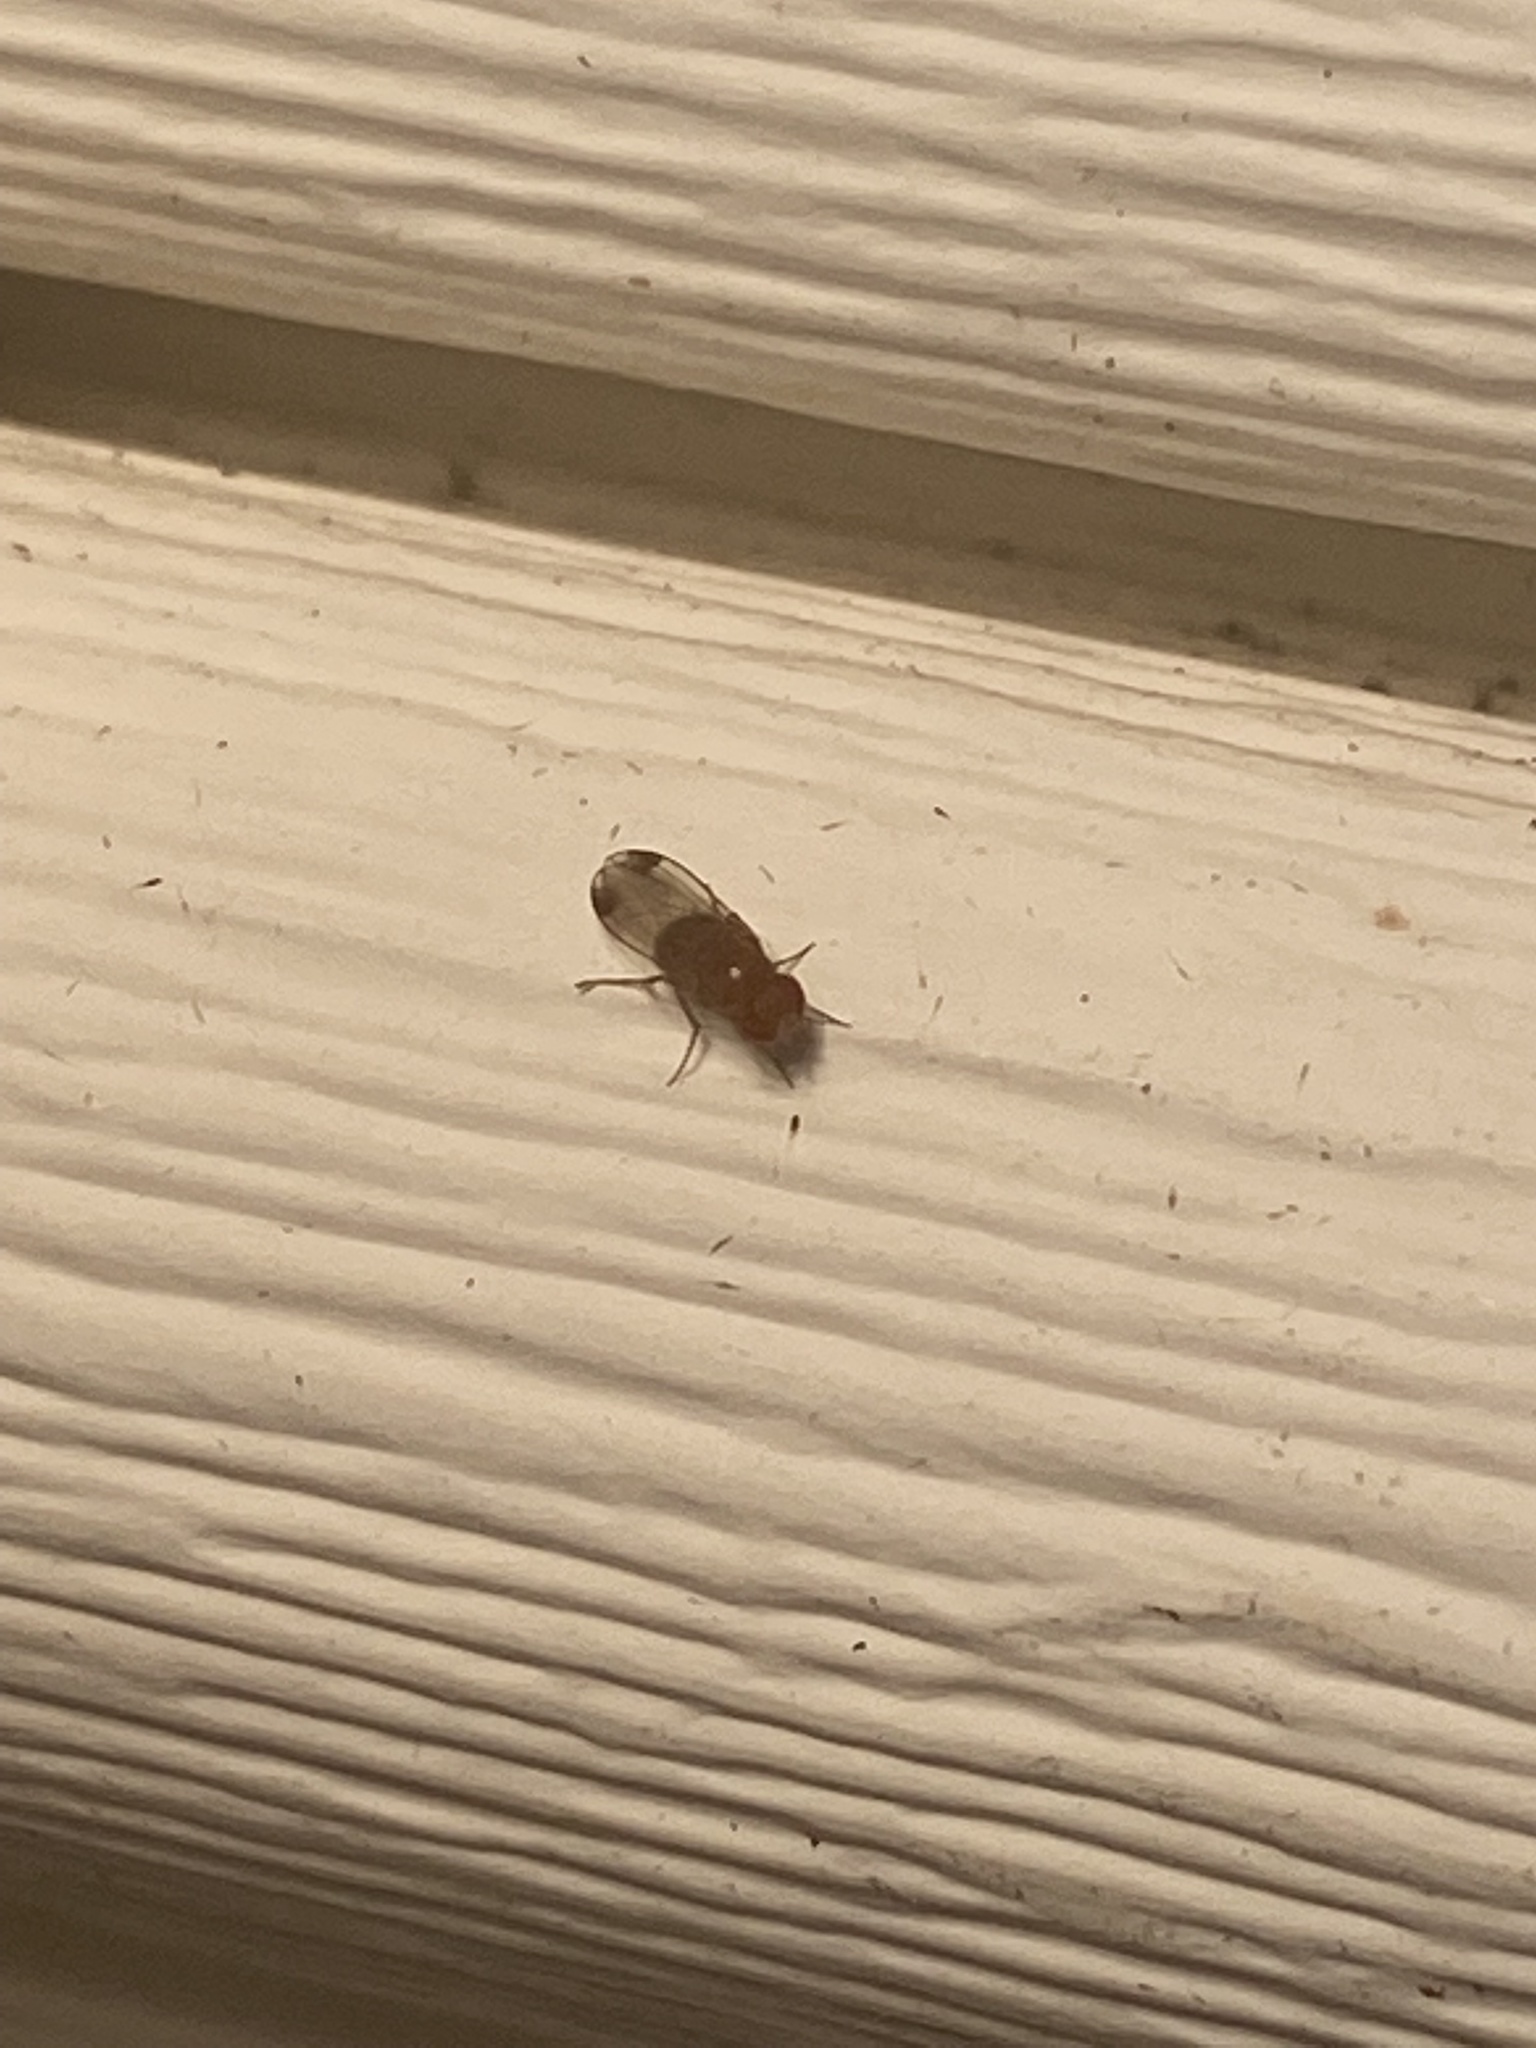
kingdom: Animalia
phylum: Arthropoda
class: Insecta
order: Diptera
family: Drosophilidae
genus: Drosophila
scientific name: Drosophila suzukii
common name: Spotted-wing drosophila
